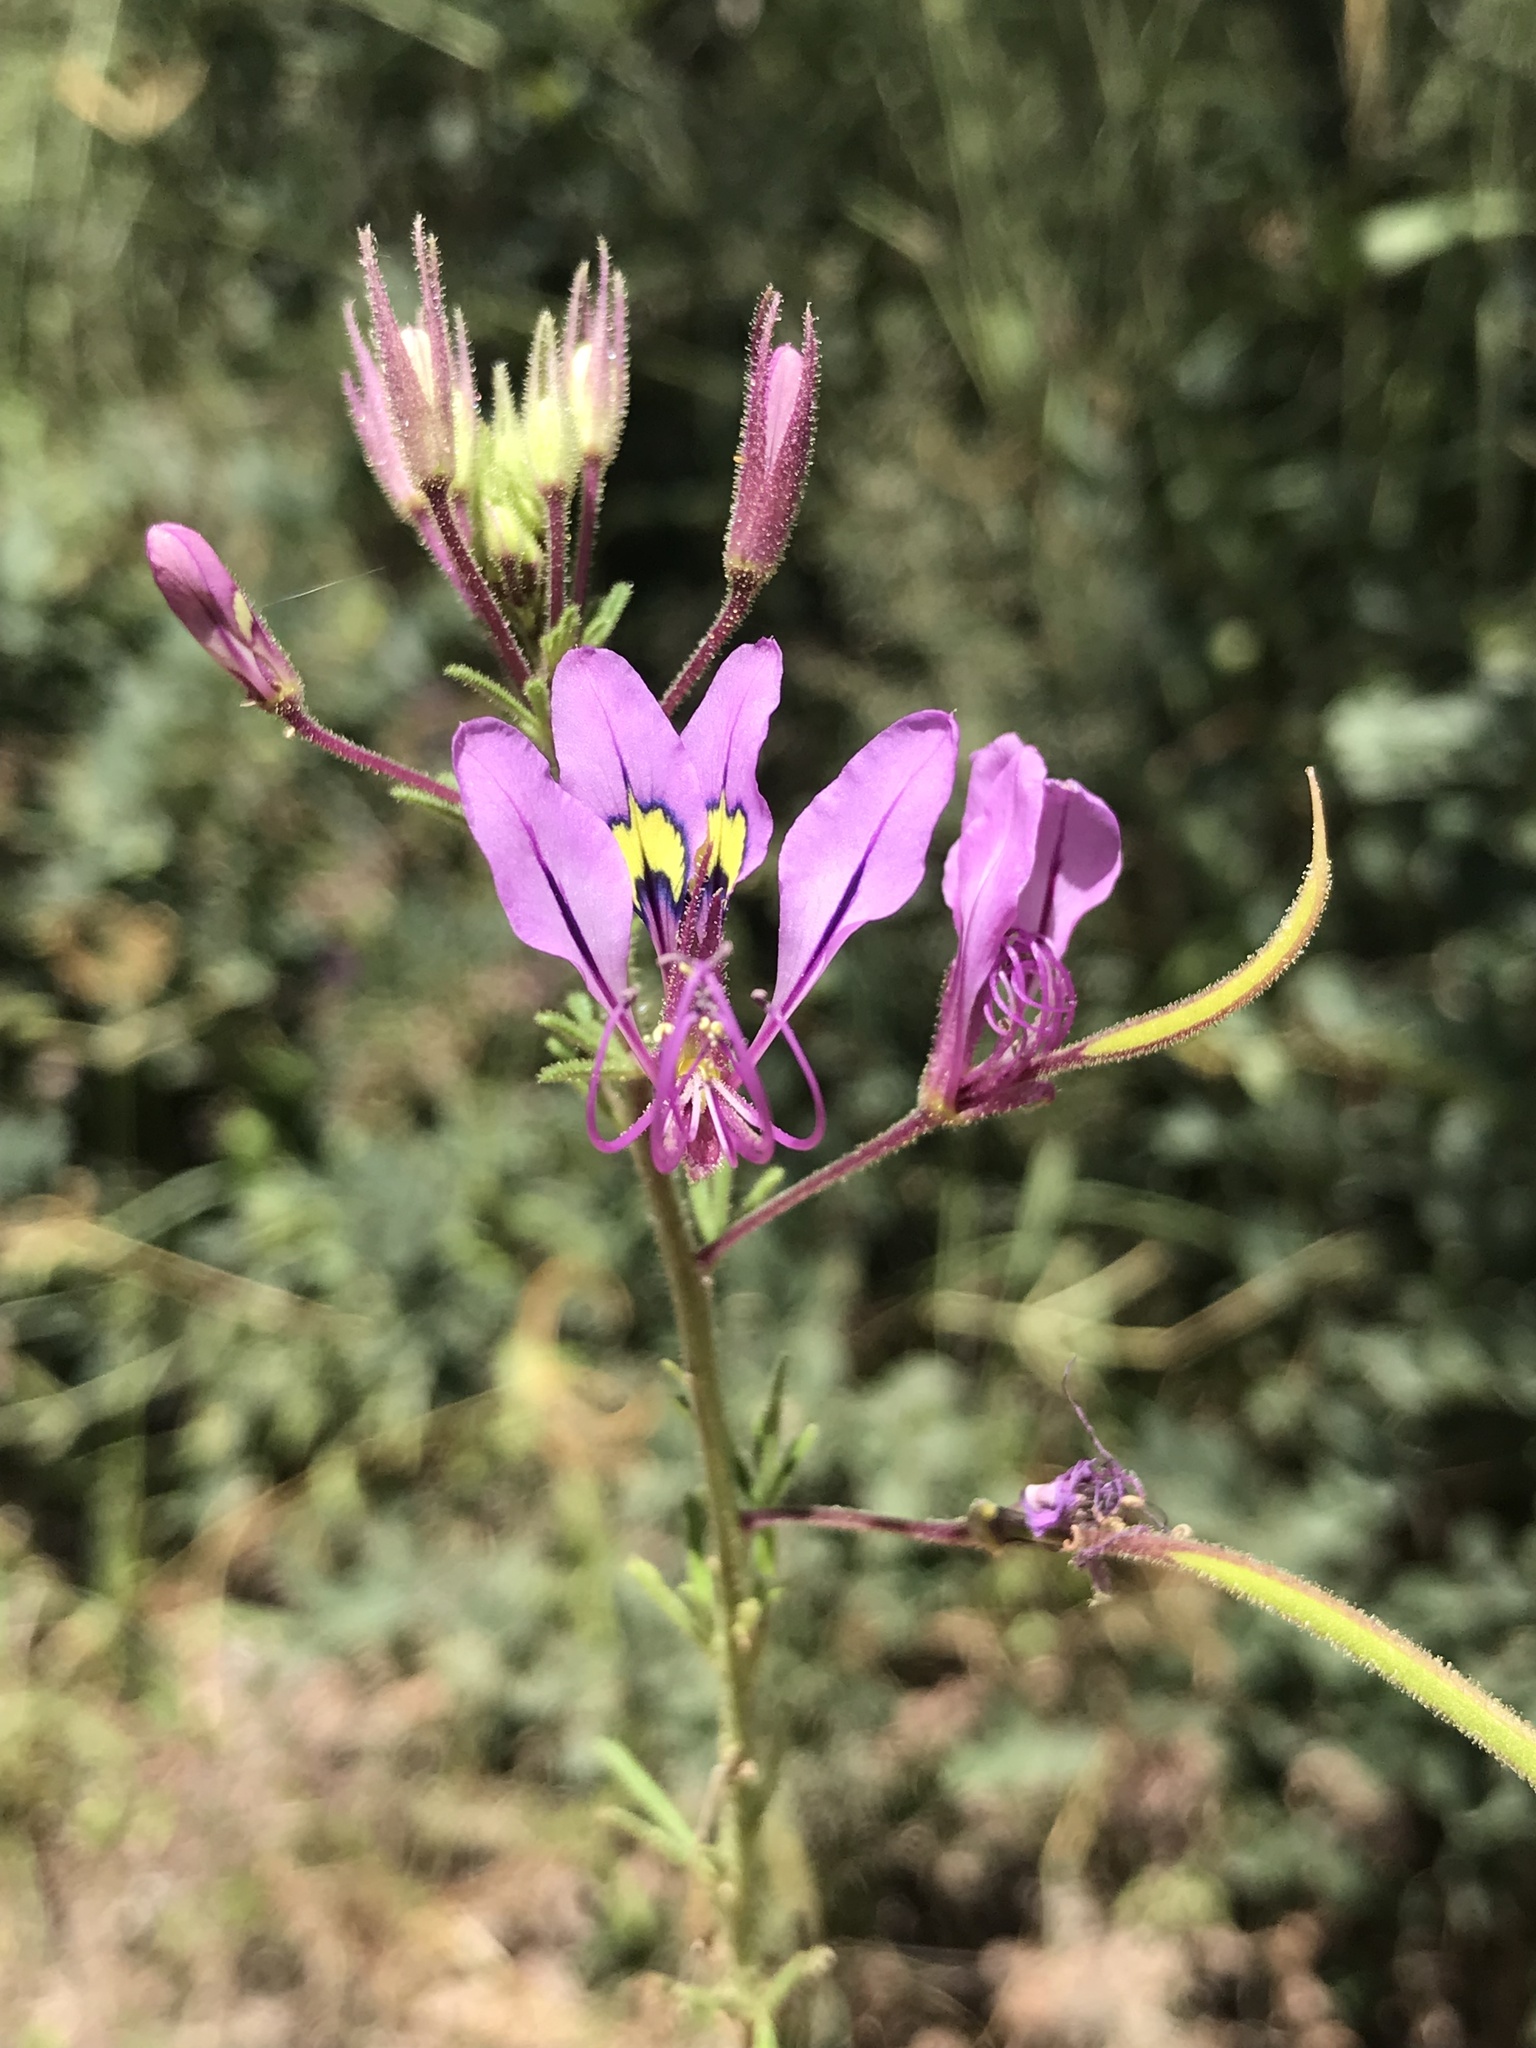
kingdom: Plantae
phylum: Tracheophyta
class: Magnoliopsida
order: Brassicales
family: Cleomaceae
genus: Sieruela
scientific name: Sieruela
